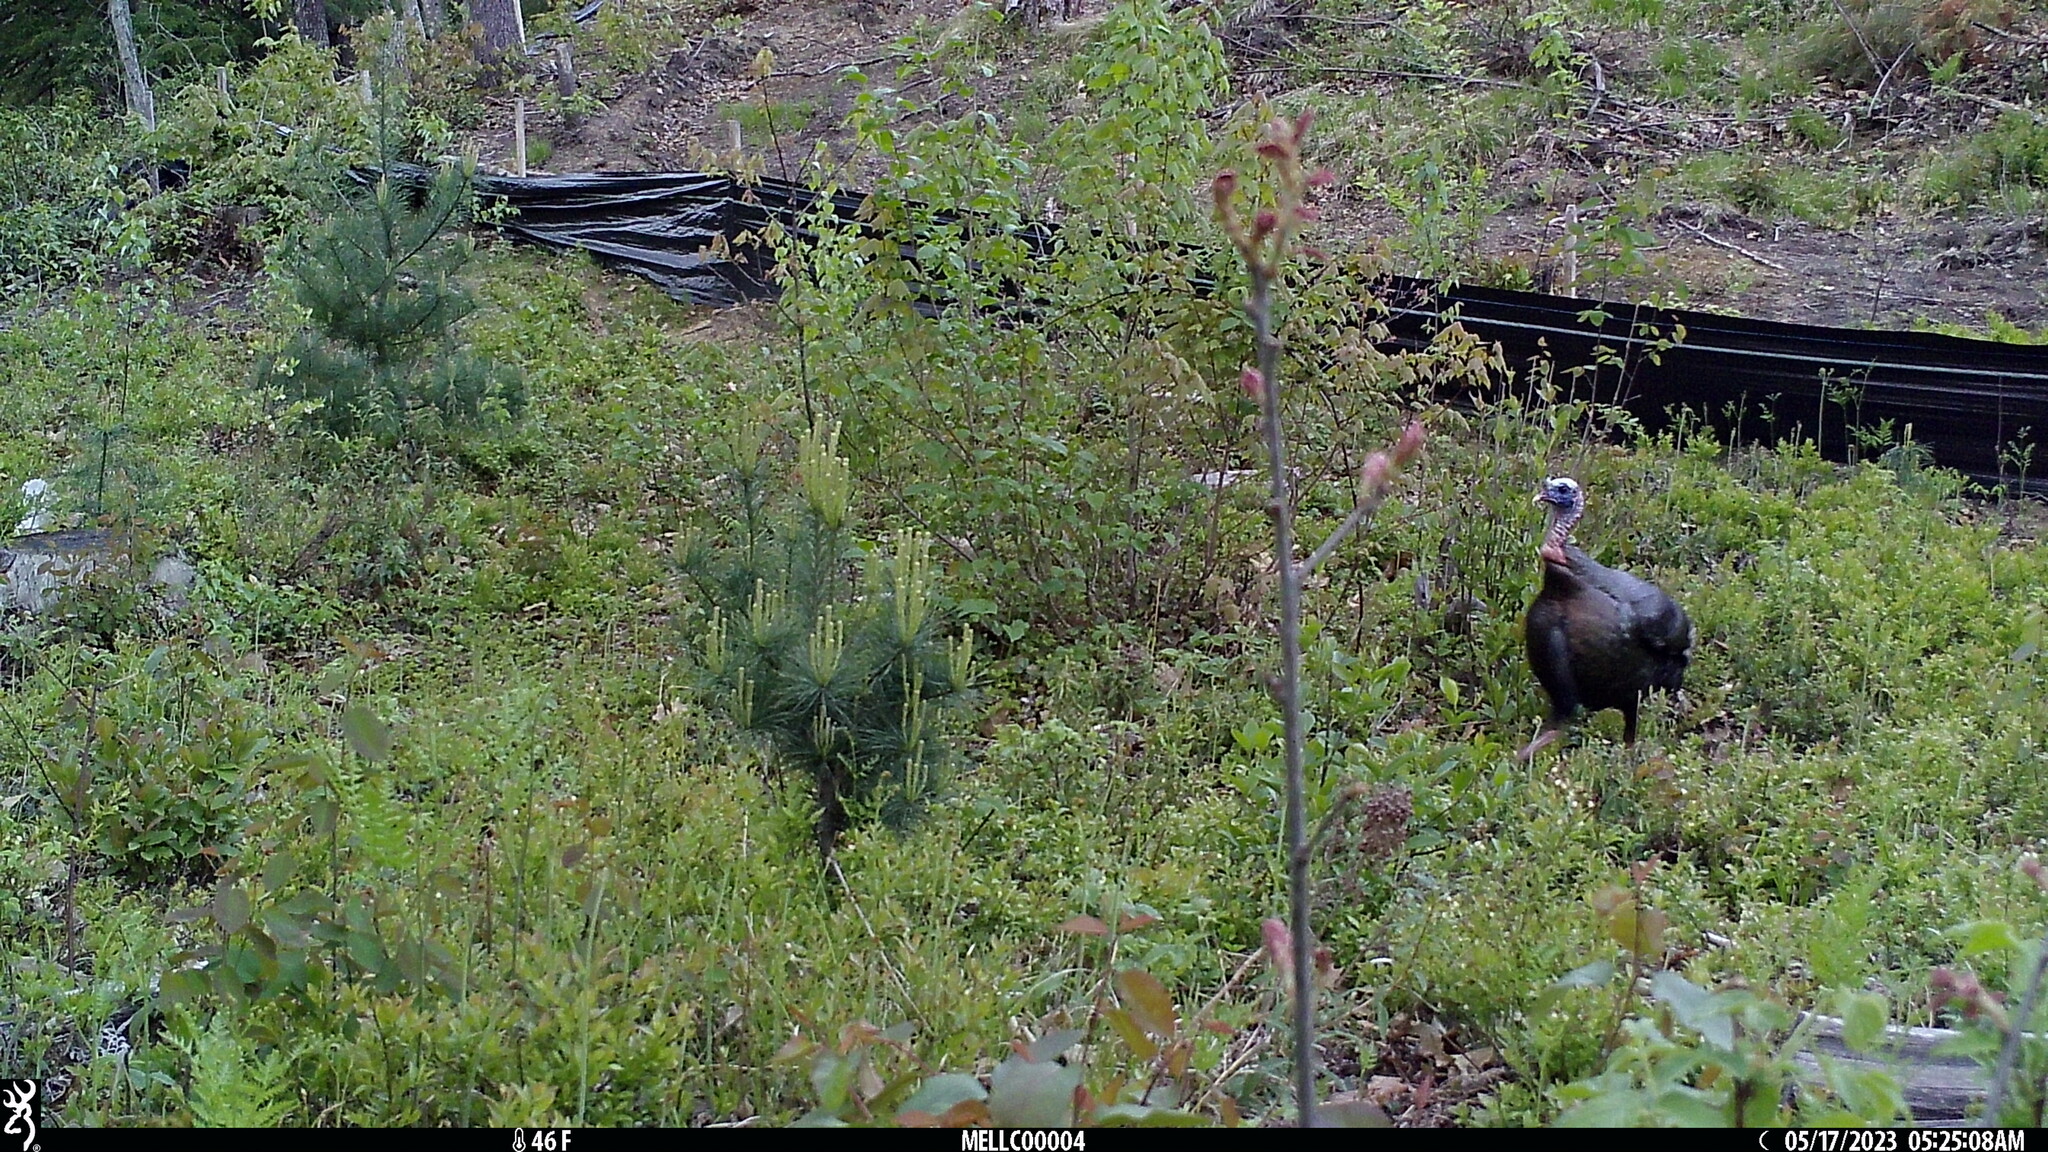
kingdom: Animalia
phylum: Chordata
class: Aves
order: Galliformes
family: Phasianidae
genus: Meleagris
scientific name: Meleagris gallopavo
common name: Wild turkey
